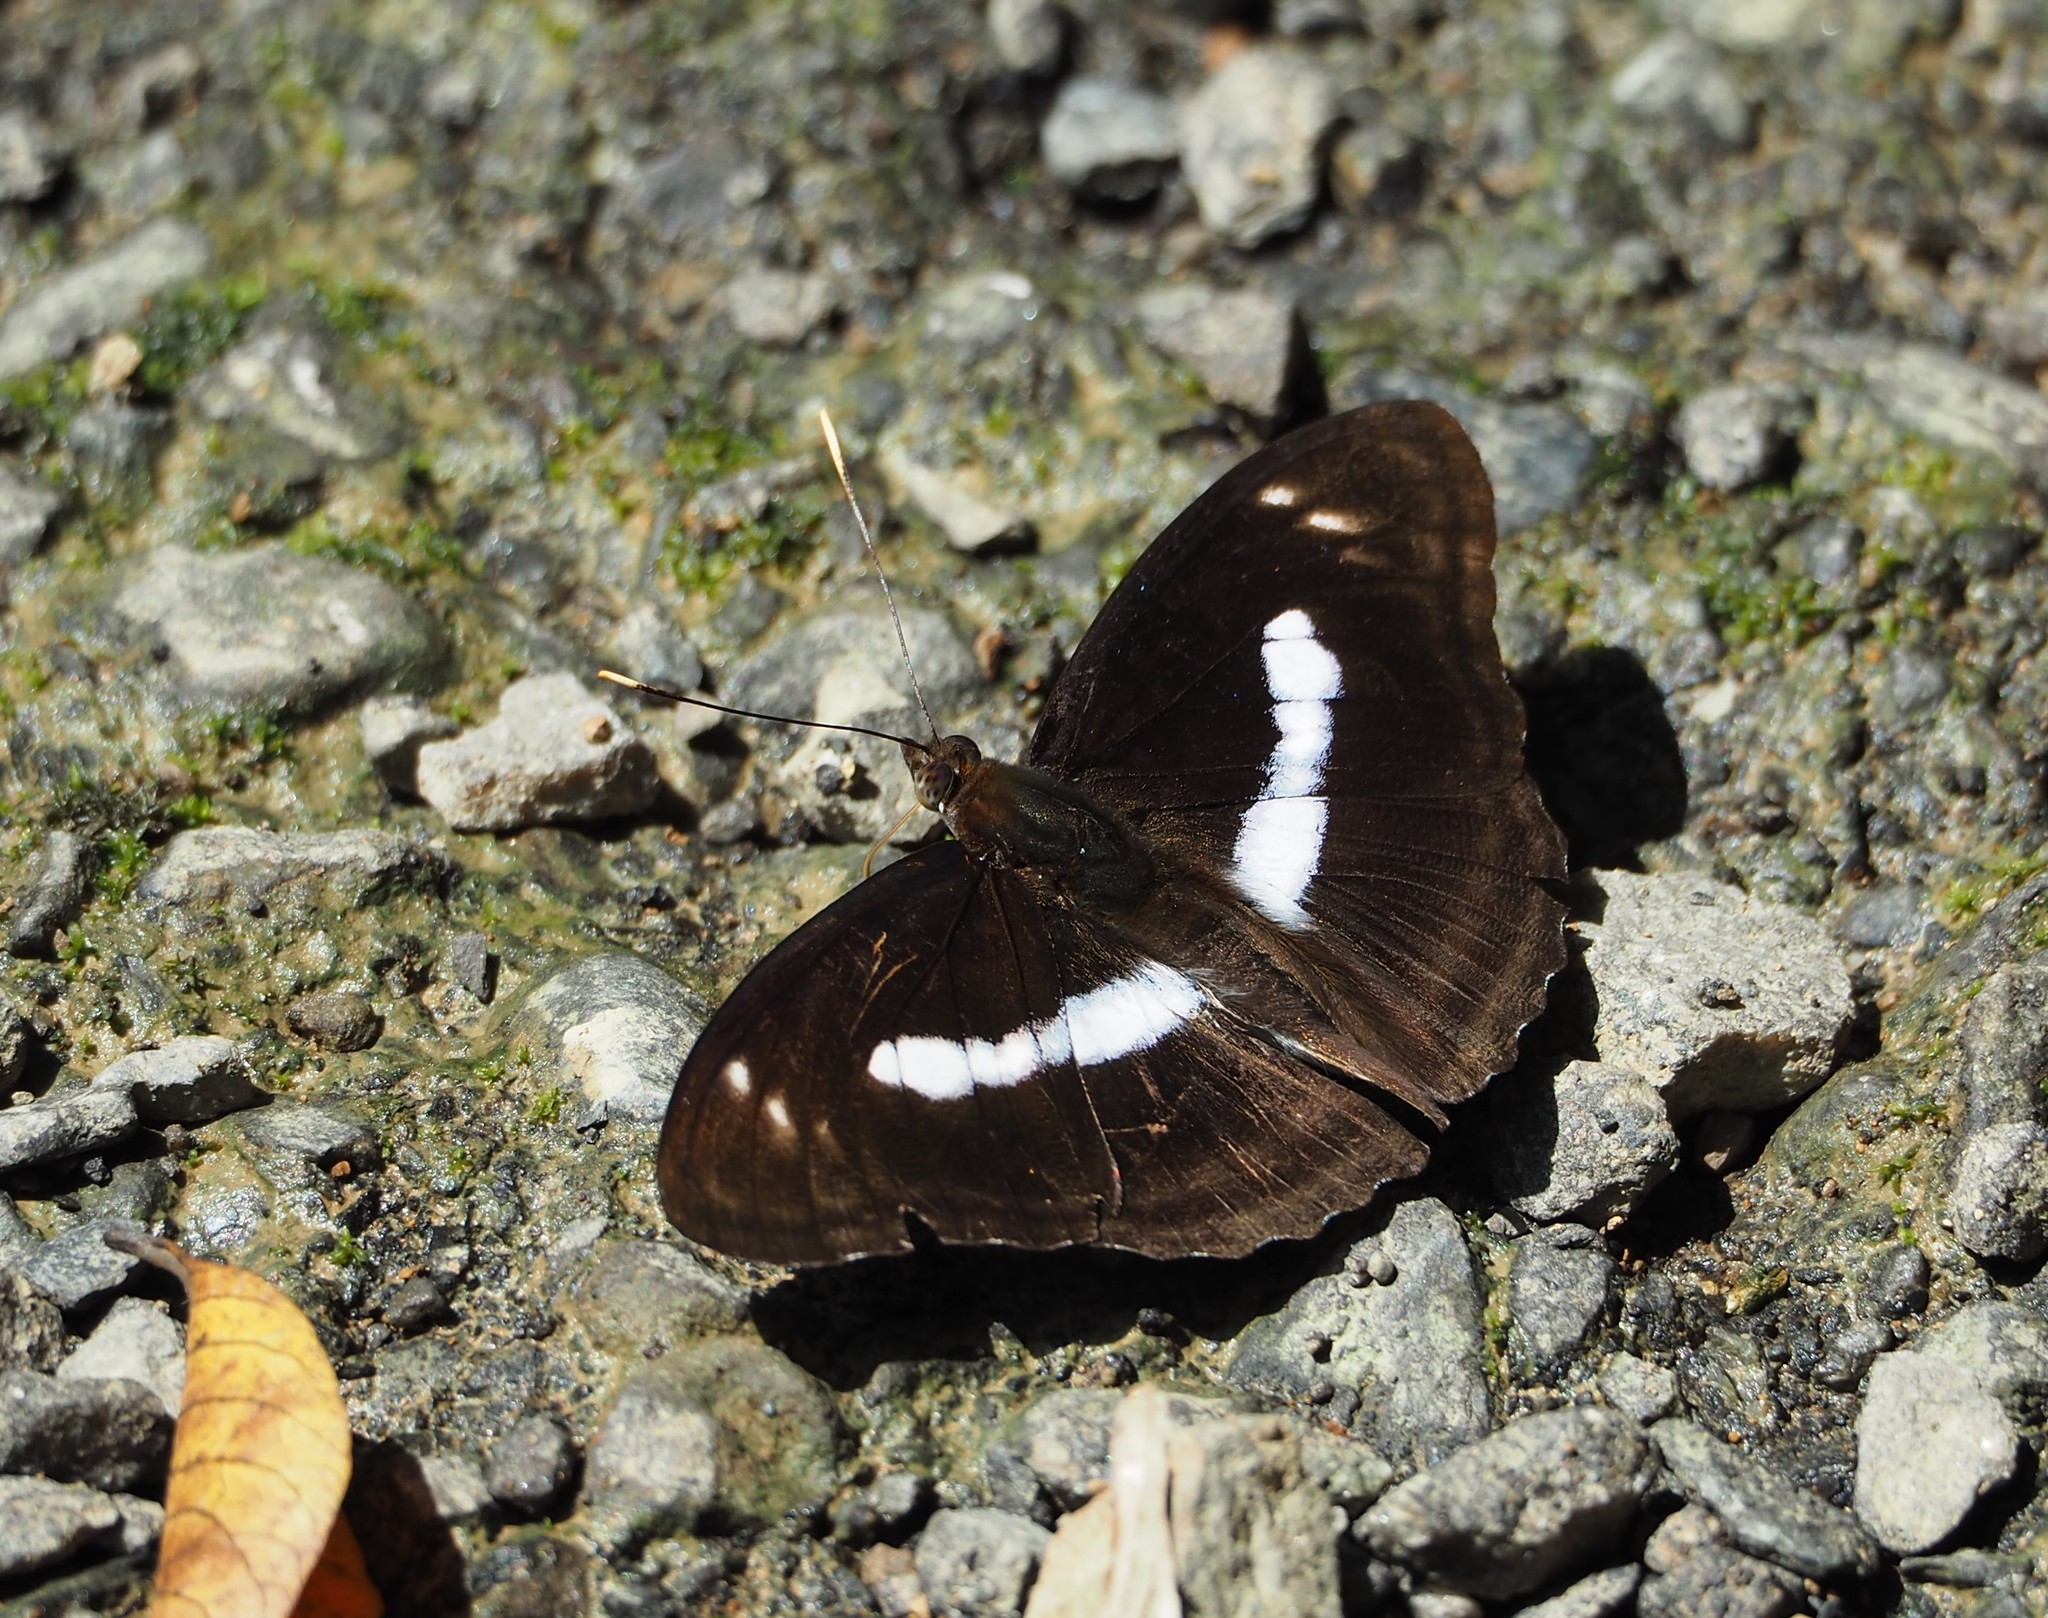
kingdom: Animalia
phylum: Arthropoda
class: Insecta
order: Lepidoptera
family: Nymphalidae
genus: Parathyma
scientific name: Parathyma selenophora
